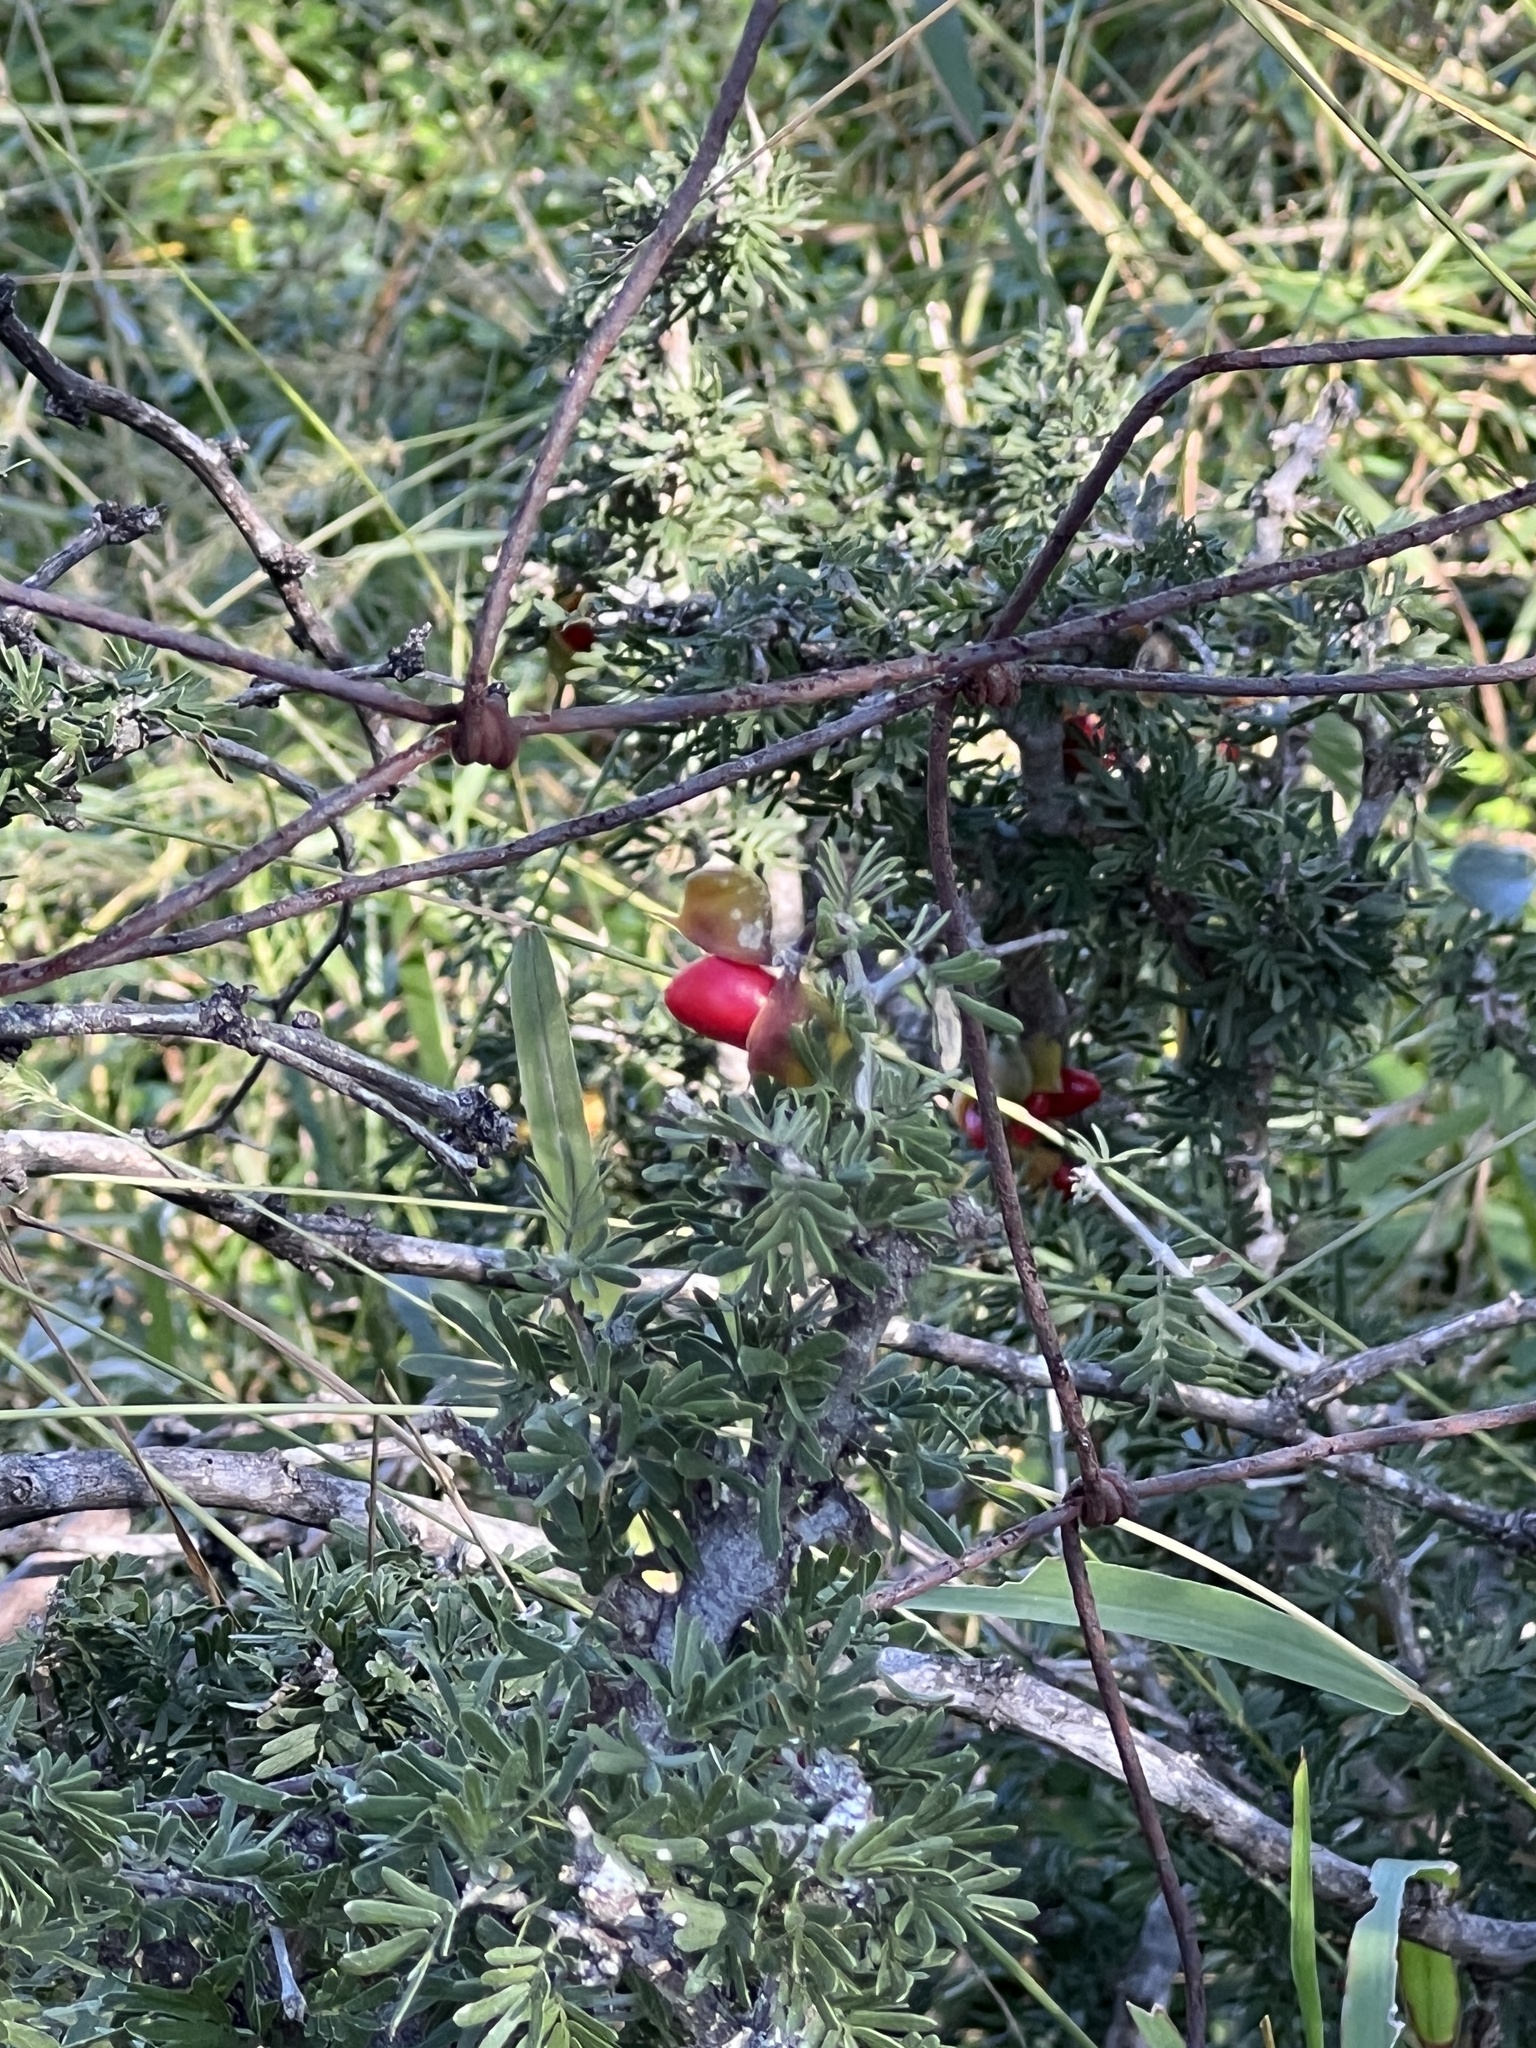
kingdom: Plantae
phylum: Tracheophyta
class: Magnoliopsida
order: Zygophyllales
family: Zygophyllaceae
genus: Porlieria
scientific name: Porlieria angustifolia
